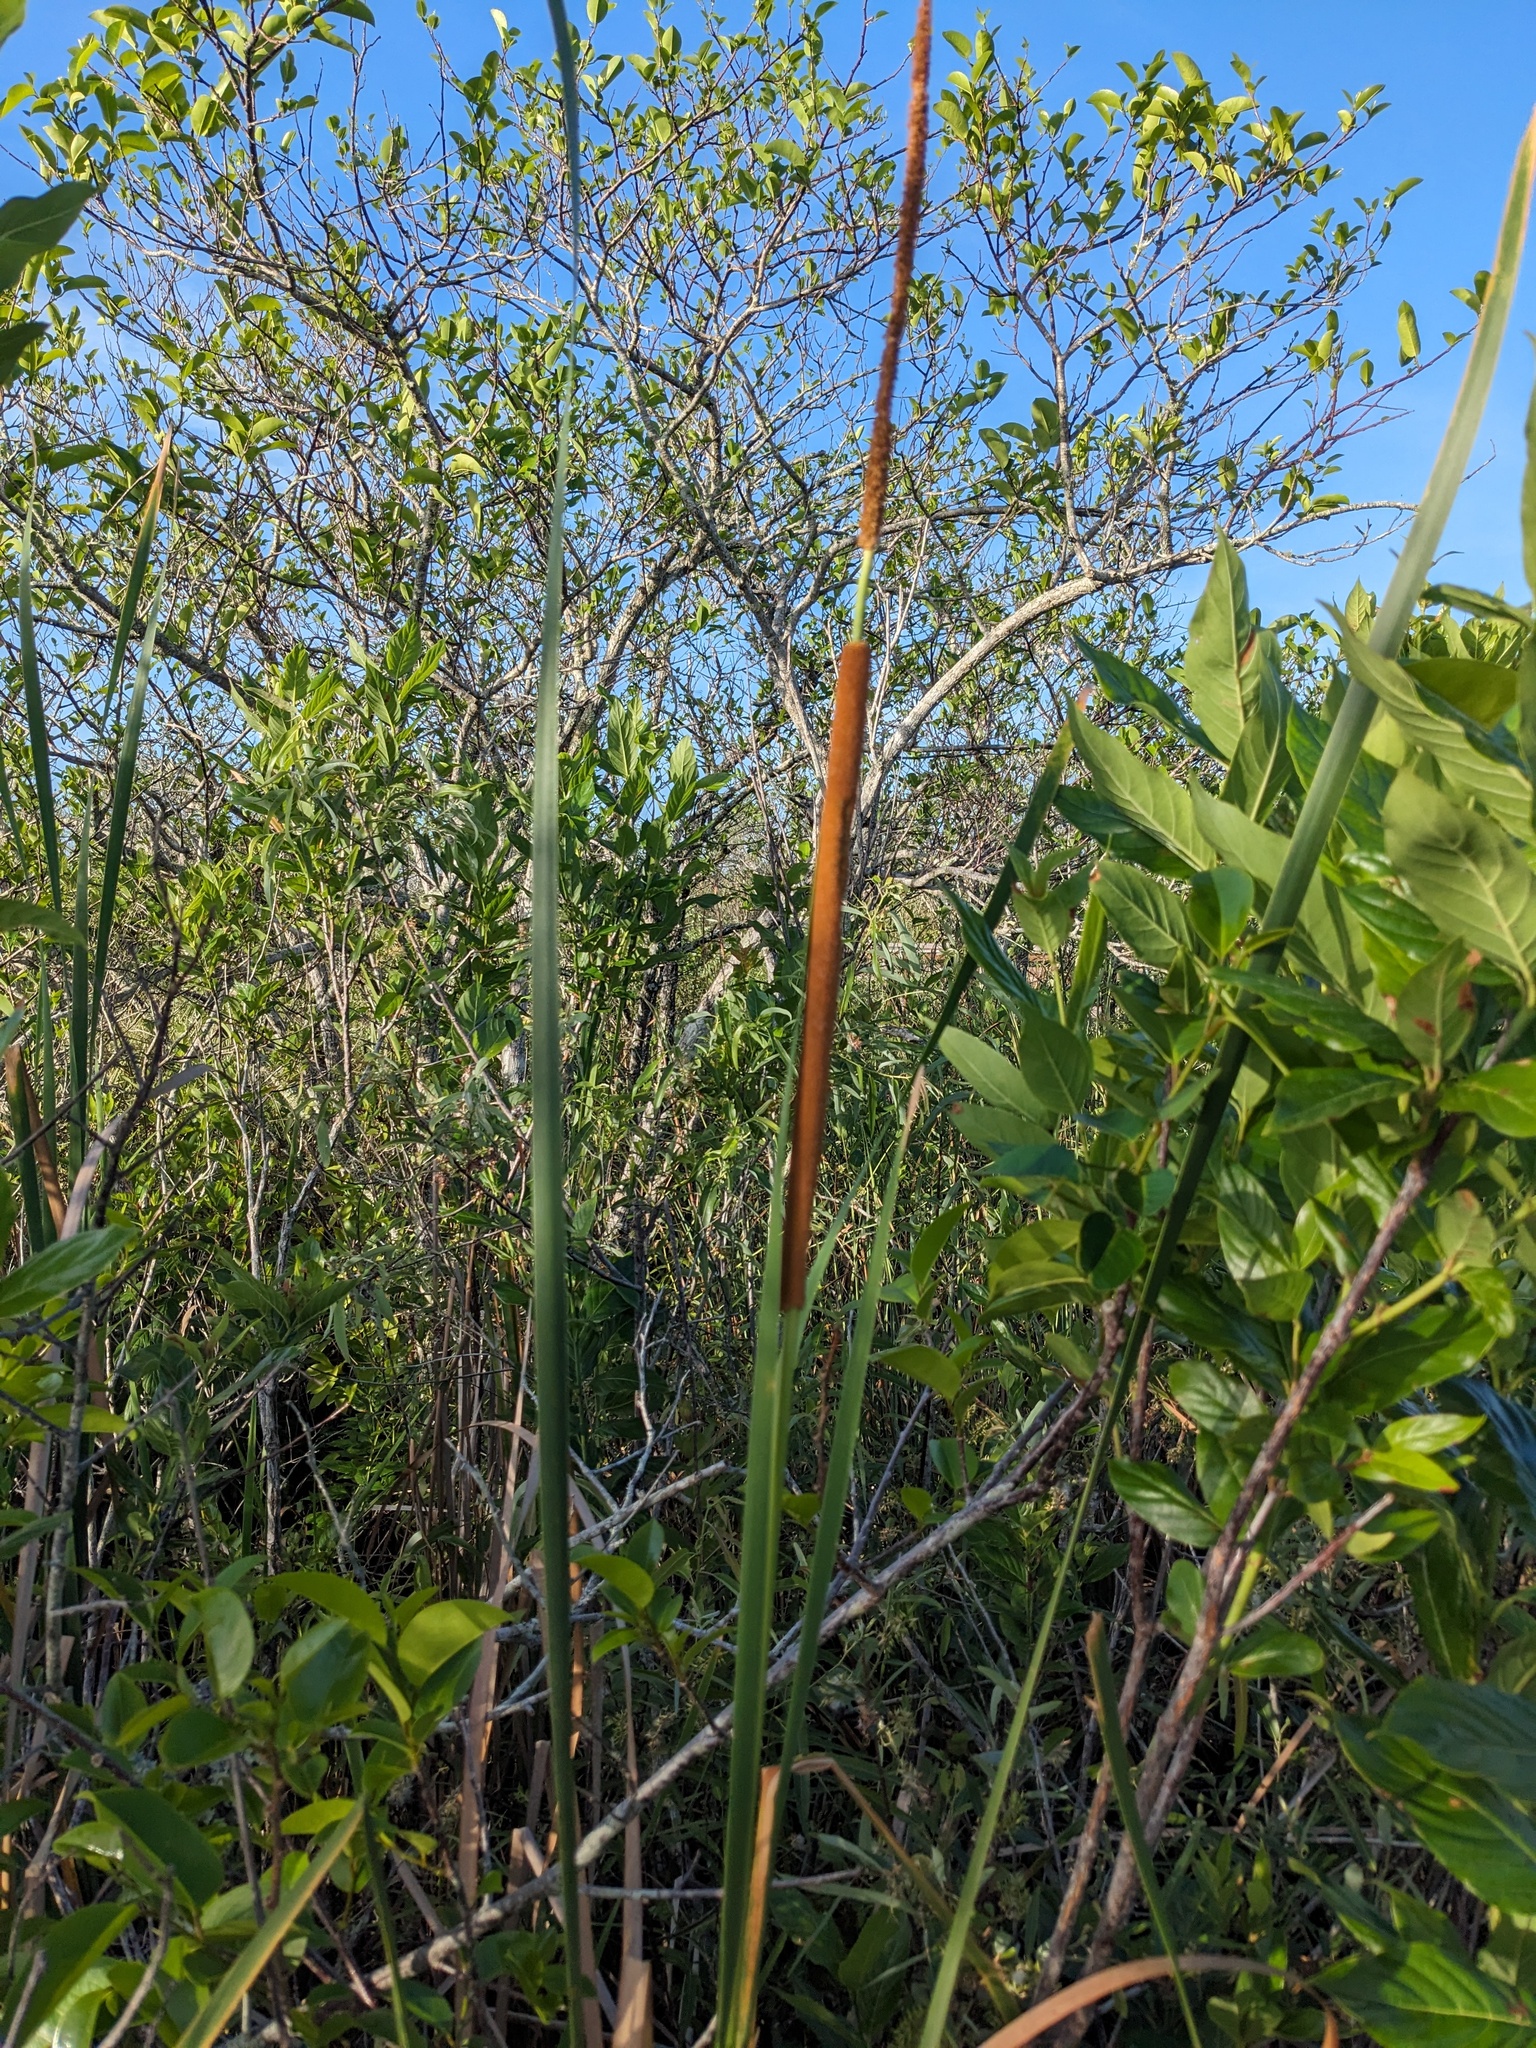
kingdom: Plantae
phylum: Tracheophyta
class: Liliopsida
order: Poales
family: Typhaceae
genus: Typha
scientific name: Typha domingensis
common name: Southern cattail
